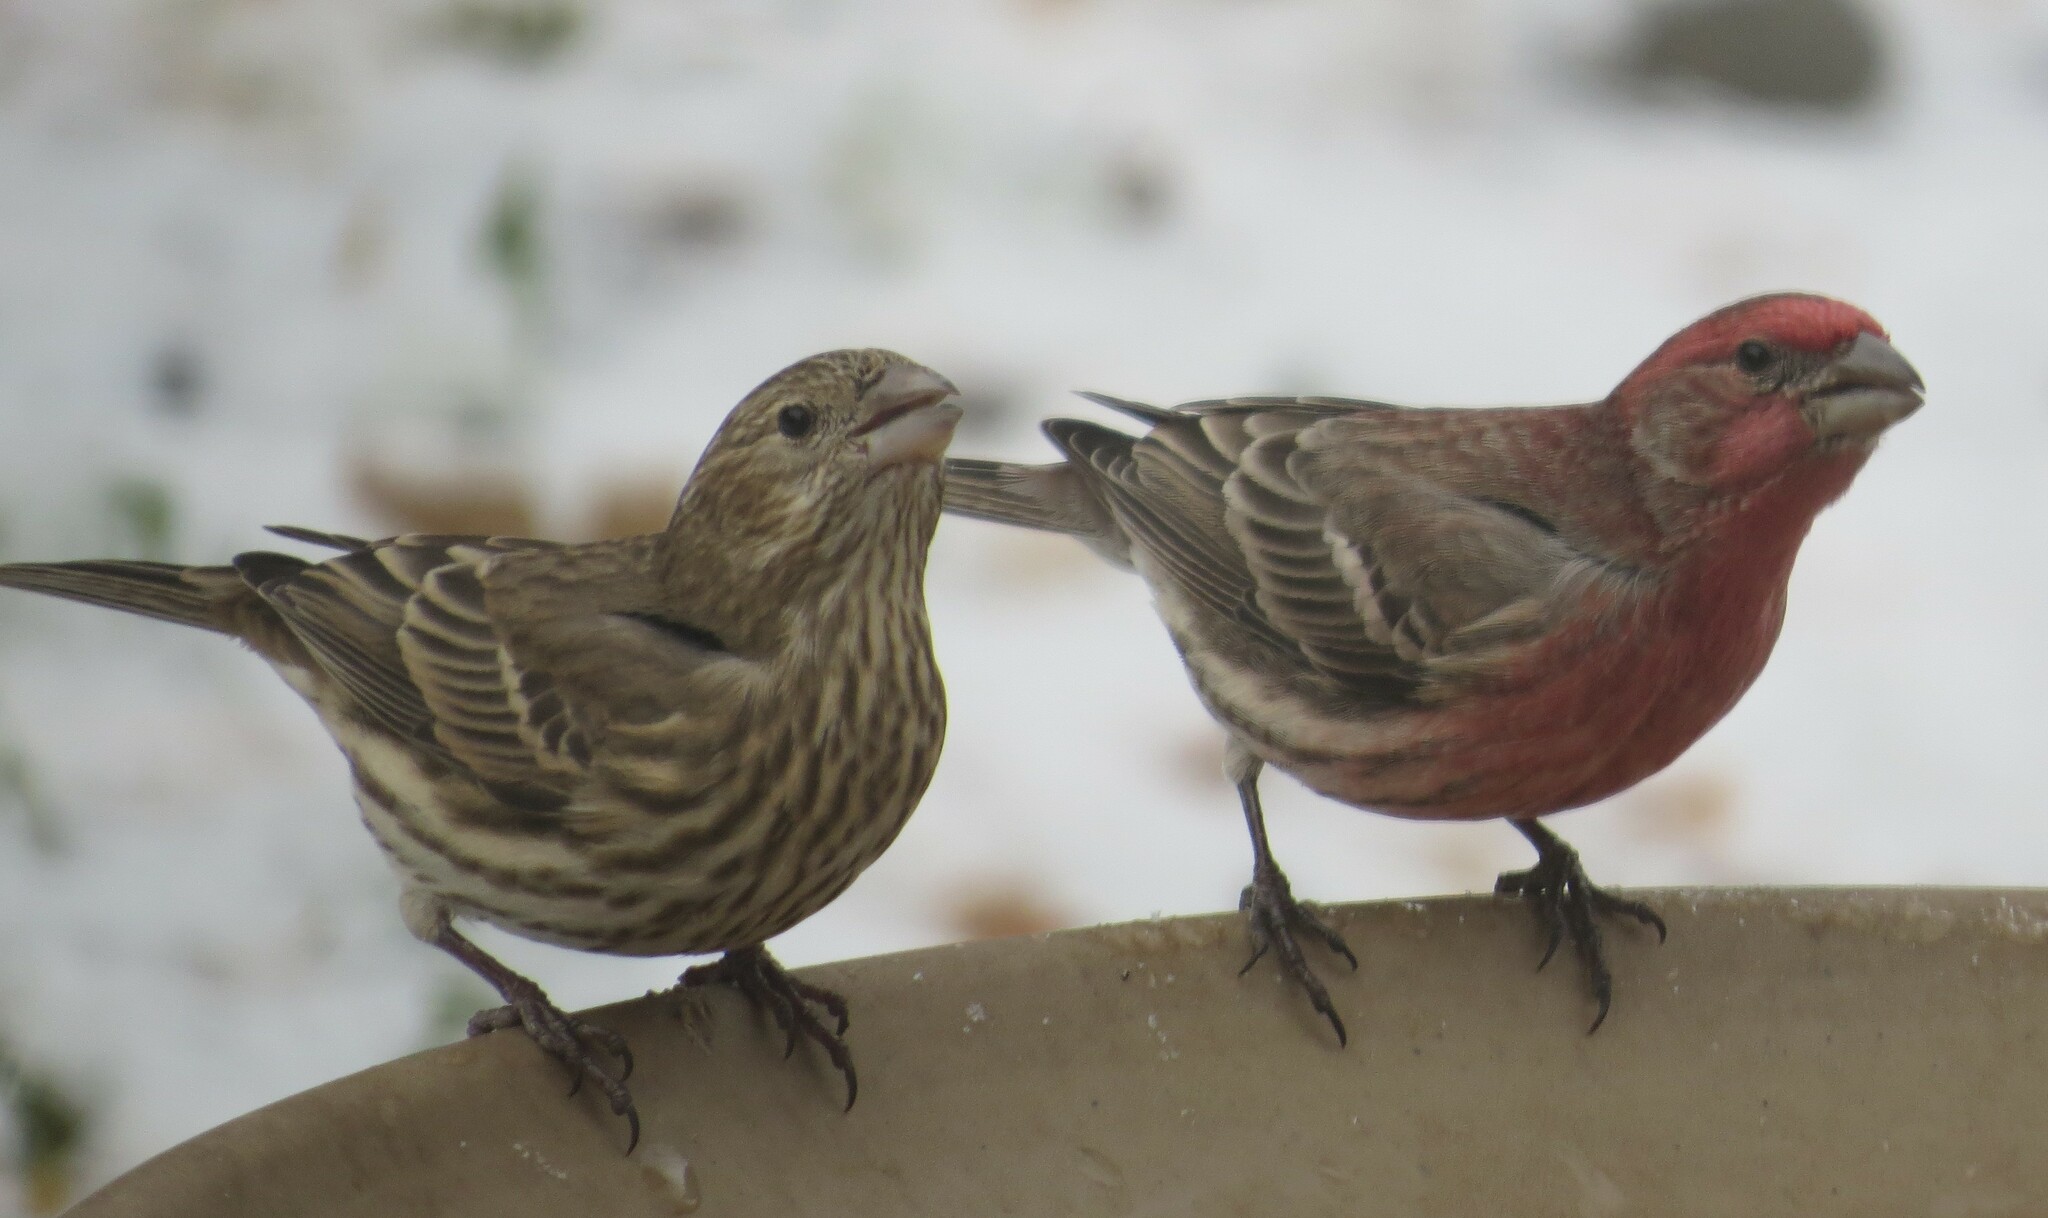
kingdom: Animalia
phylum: Chordata
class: Aves
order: Passeriformes
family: Fringillidae
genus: Haemorhous
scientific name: Haemorhous mexicanus
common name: House finch
